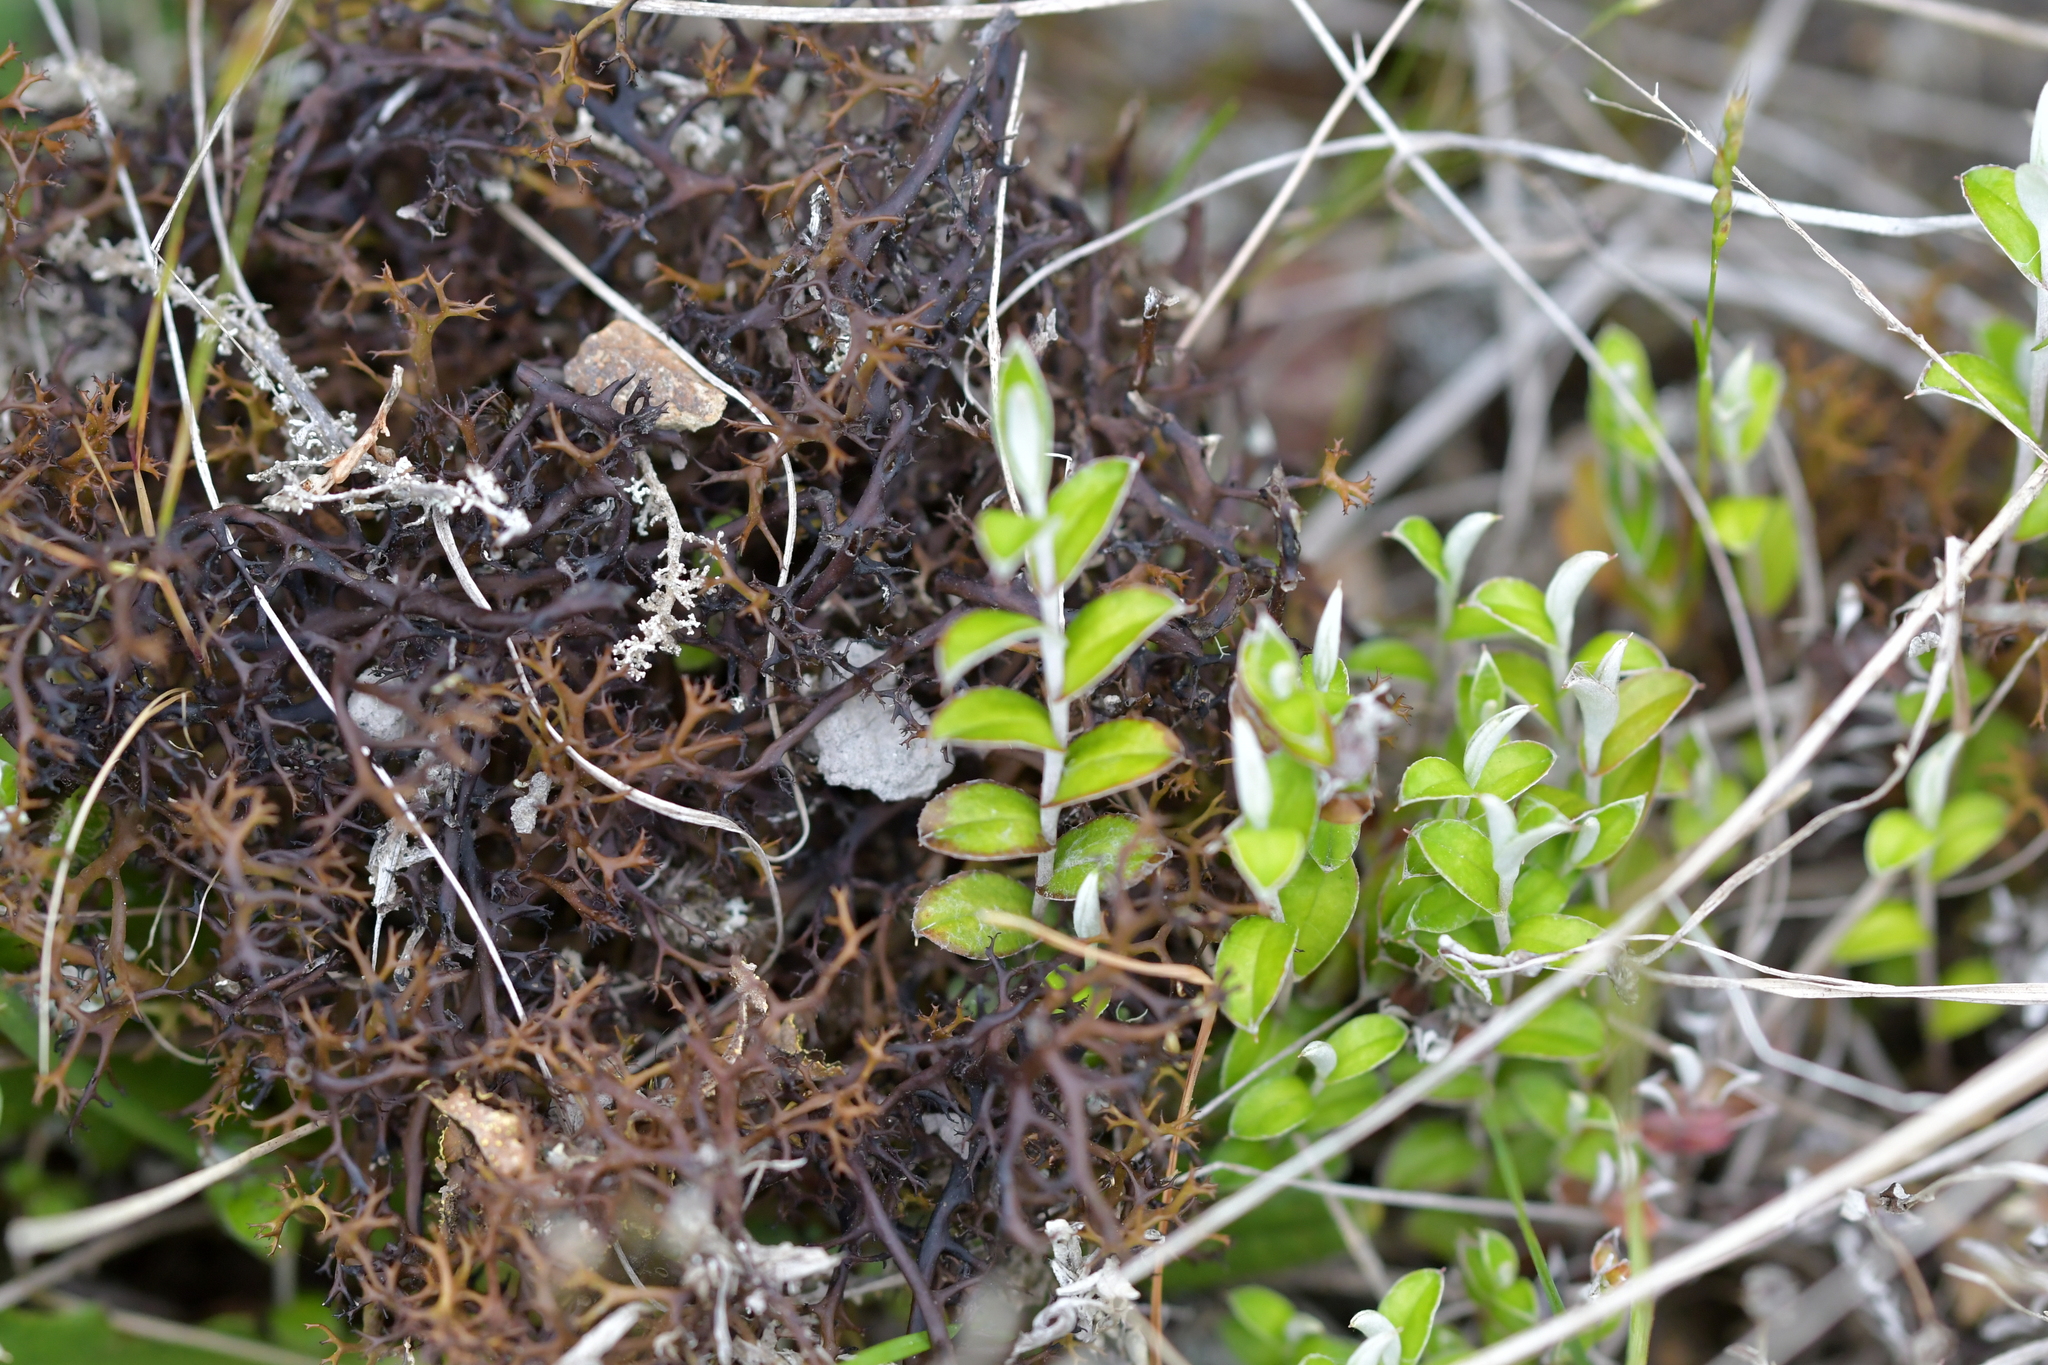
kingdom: Plantae
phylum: Tracheophyta
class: Magnoliopsida
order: Asterales
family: Asteraceae
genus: Helichrysum
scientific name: Helichrysum filicaule
